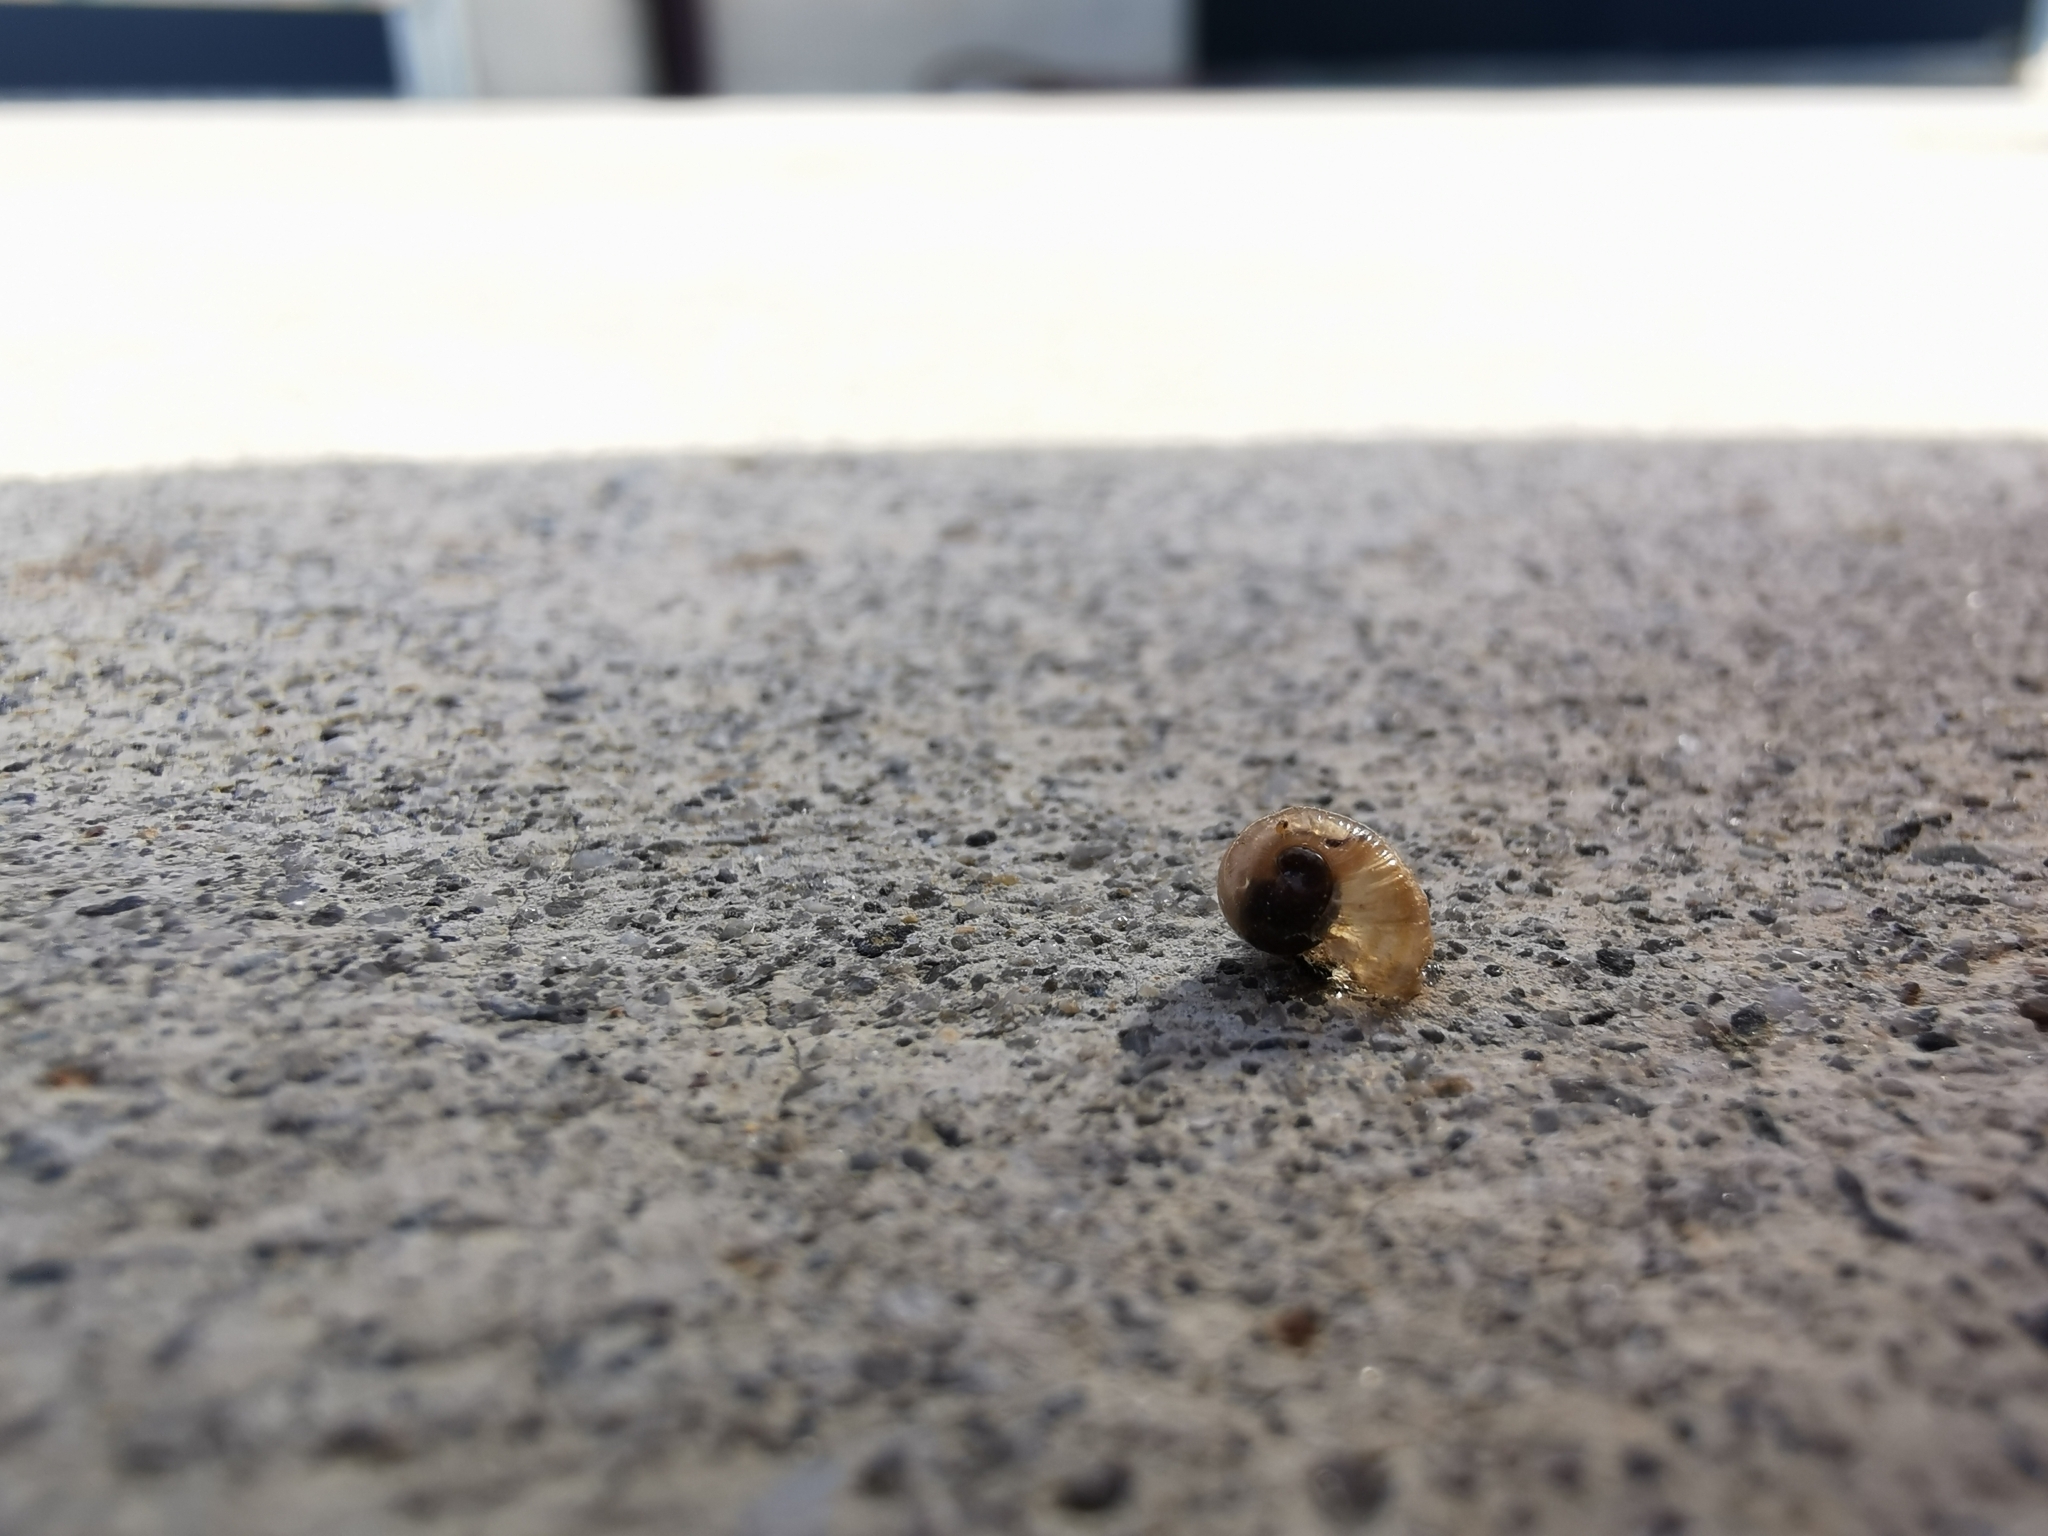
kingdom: Animalia
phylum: Mollusca
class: Gastropoda
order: Stylommatophora
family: Helicidae
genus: Cornu
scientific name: Cornu aspersum
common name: Brown garden snail
